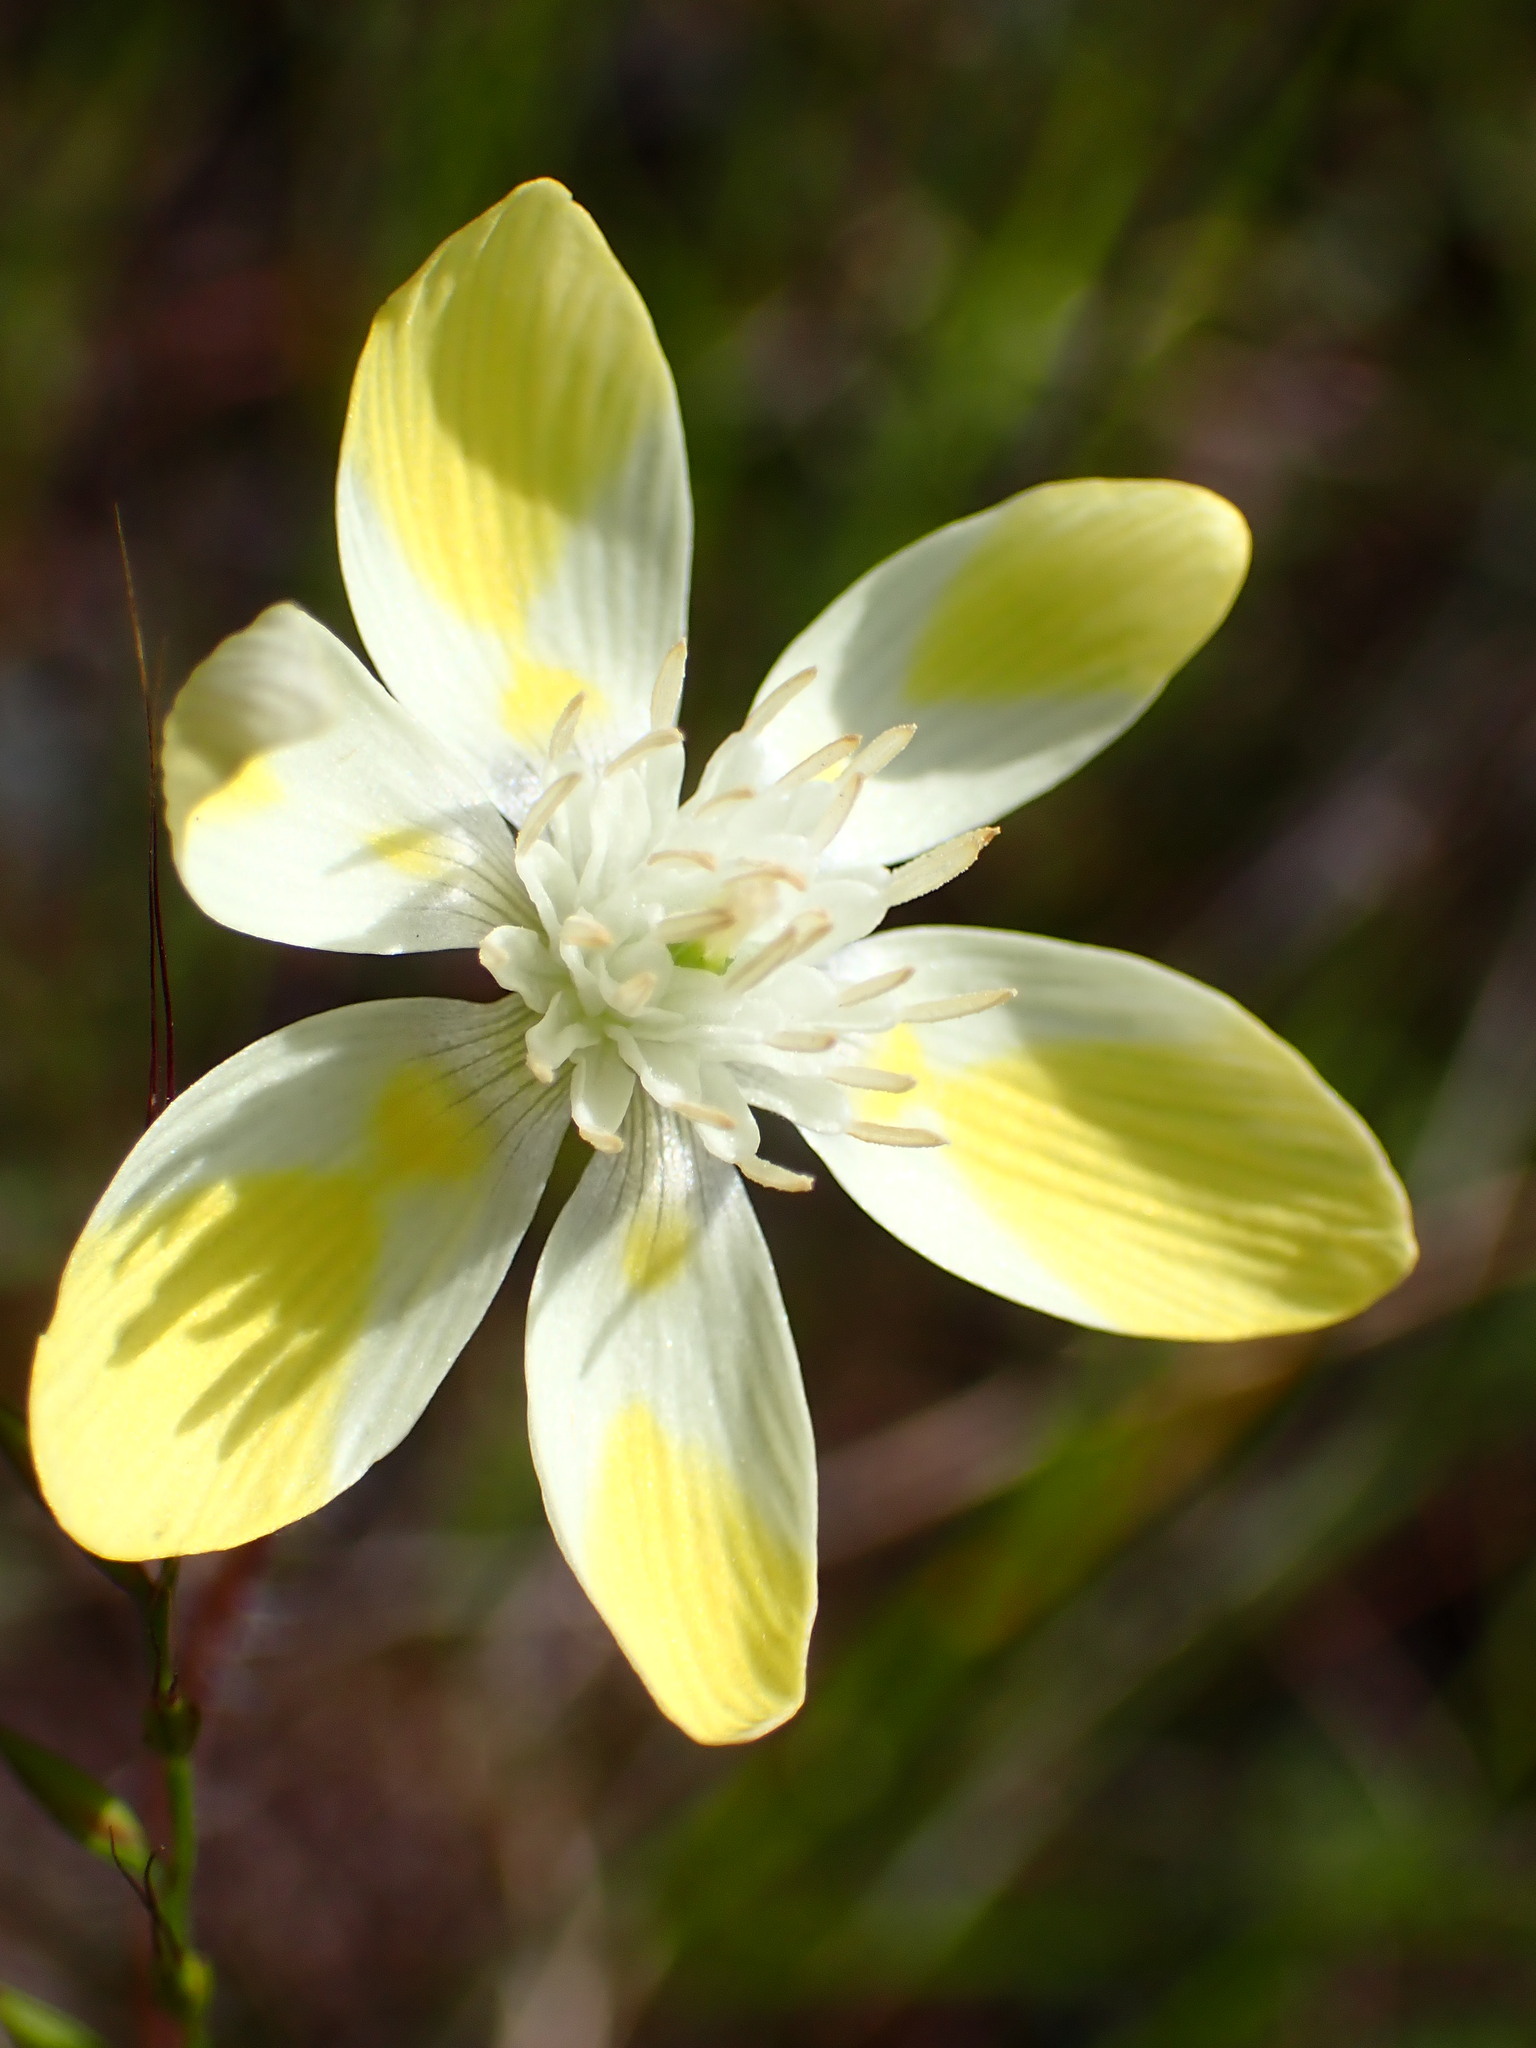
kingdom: Plantae
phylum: Tracheophyta
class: Magnoliopsida
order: Ranunculales
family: Papaveraceae
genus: Platystemon
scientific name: Platystemon californicus
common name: Cream-cups
